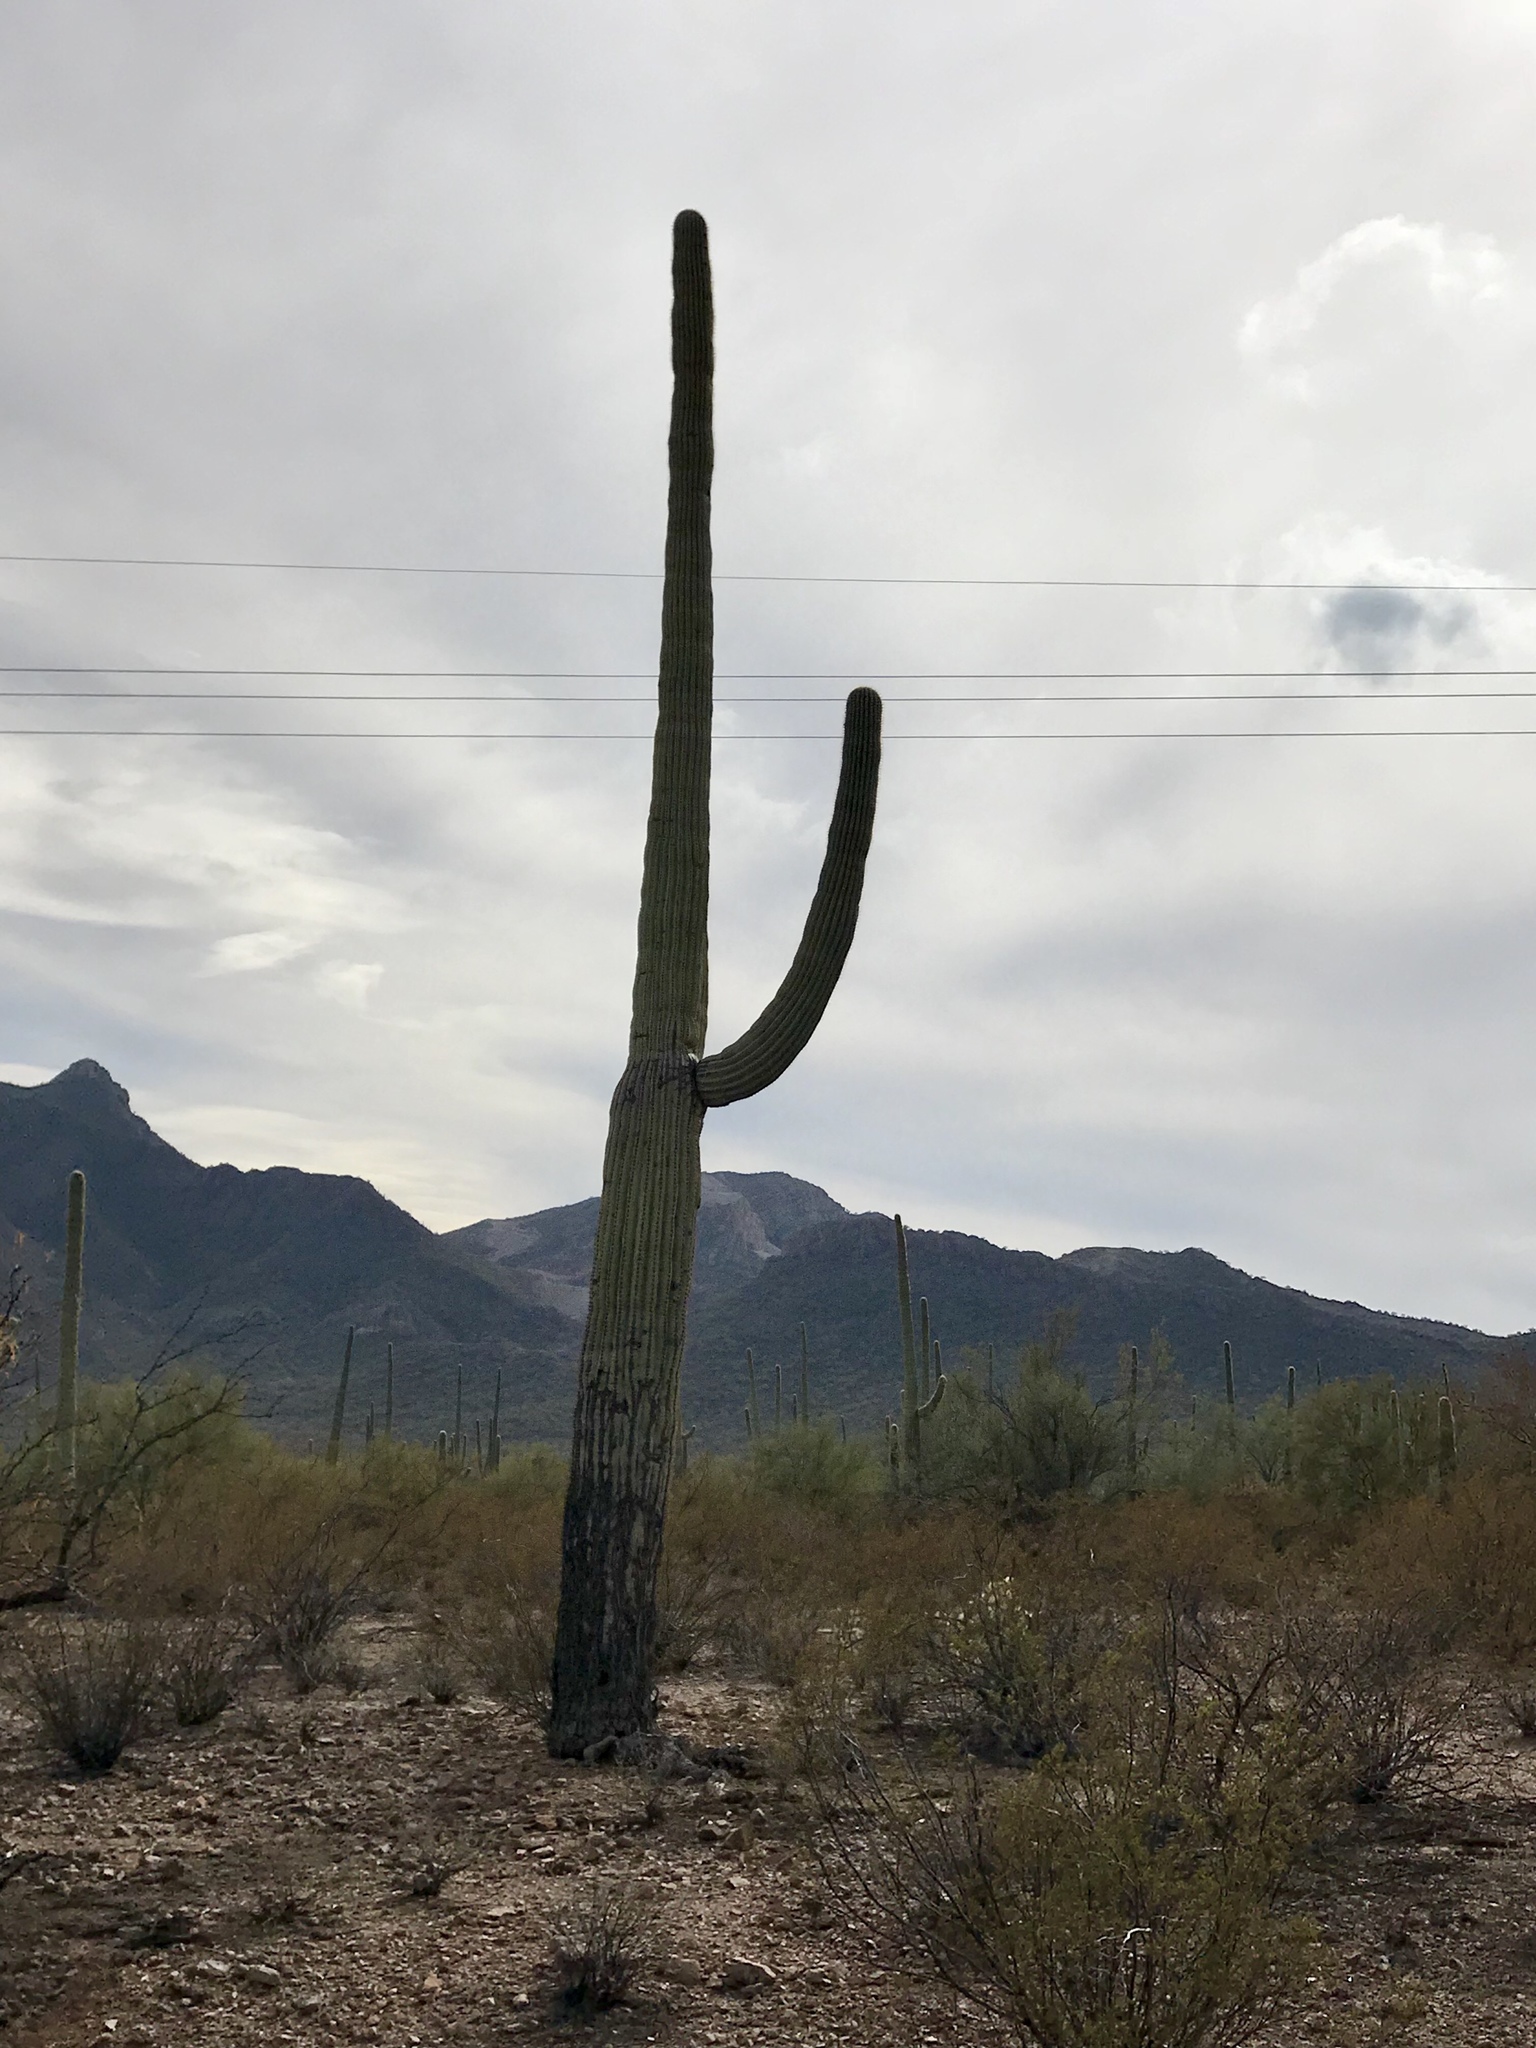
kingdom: Plantae
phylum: Tracheophyta
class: Magnoliopsida
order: Caryophyllales
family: Cactaceae
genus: Carnegiea
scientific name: Carnegiea gigantea
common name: Saguaro
